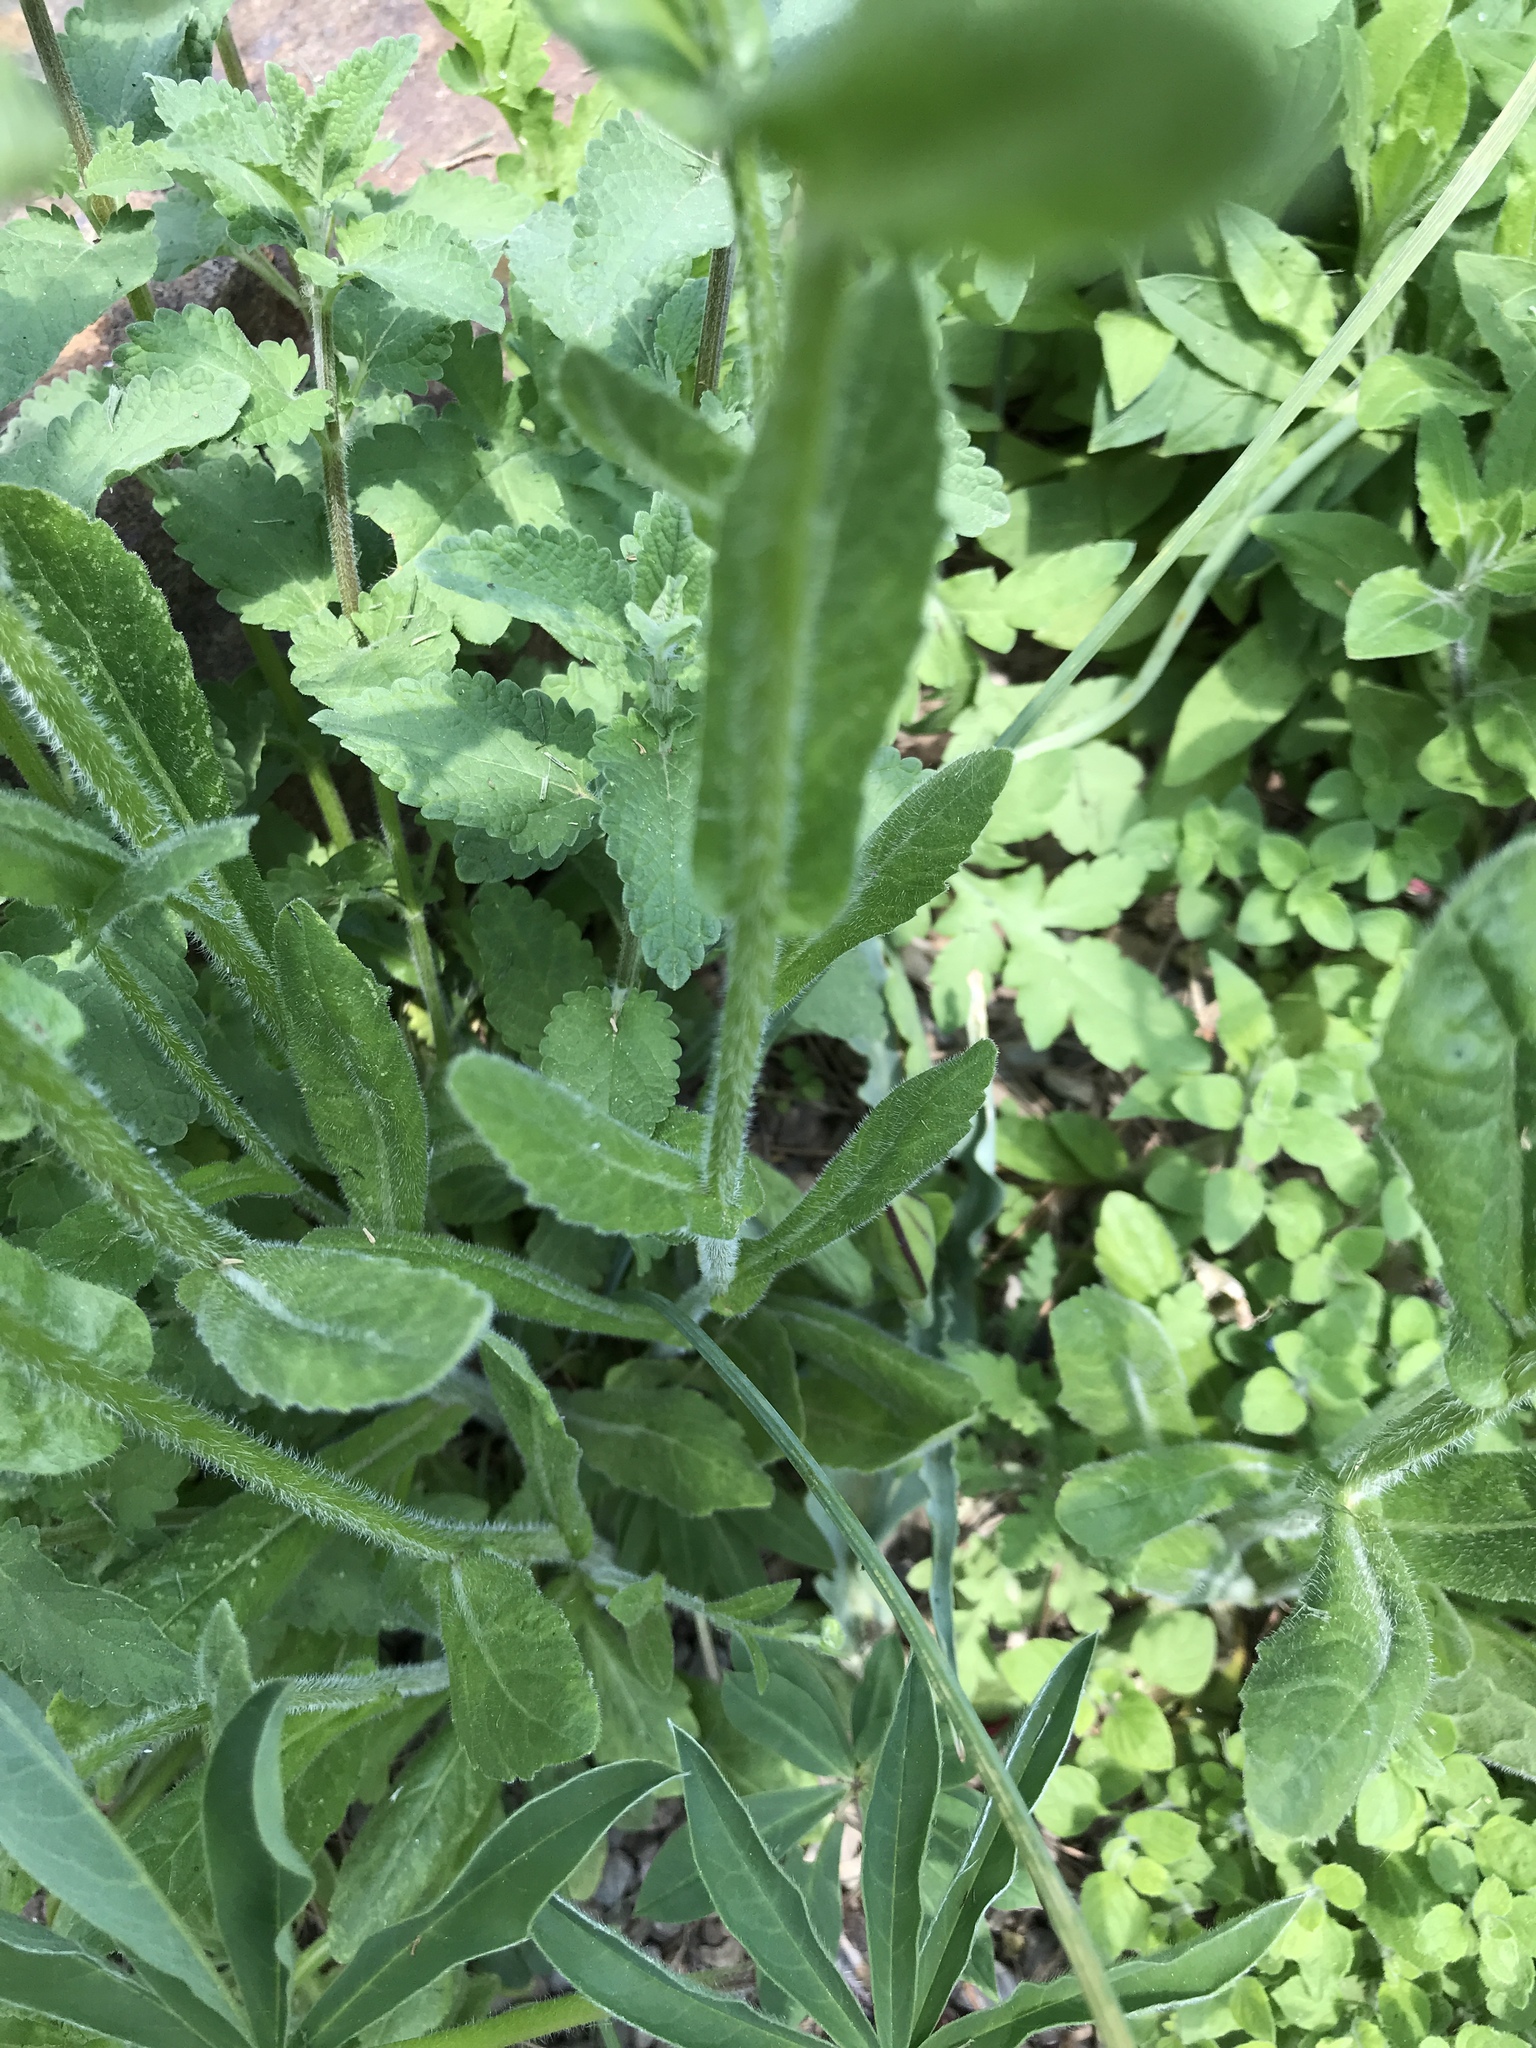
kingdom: Plantae
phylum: Tracheophyta
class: Magnoliopsida
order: Asterales
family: Asteraceae
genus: Erigeron
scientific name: Erigeron philadelphicus
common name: Robin's-plantain
